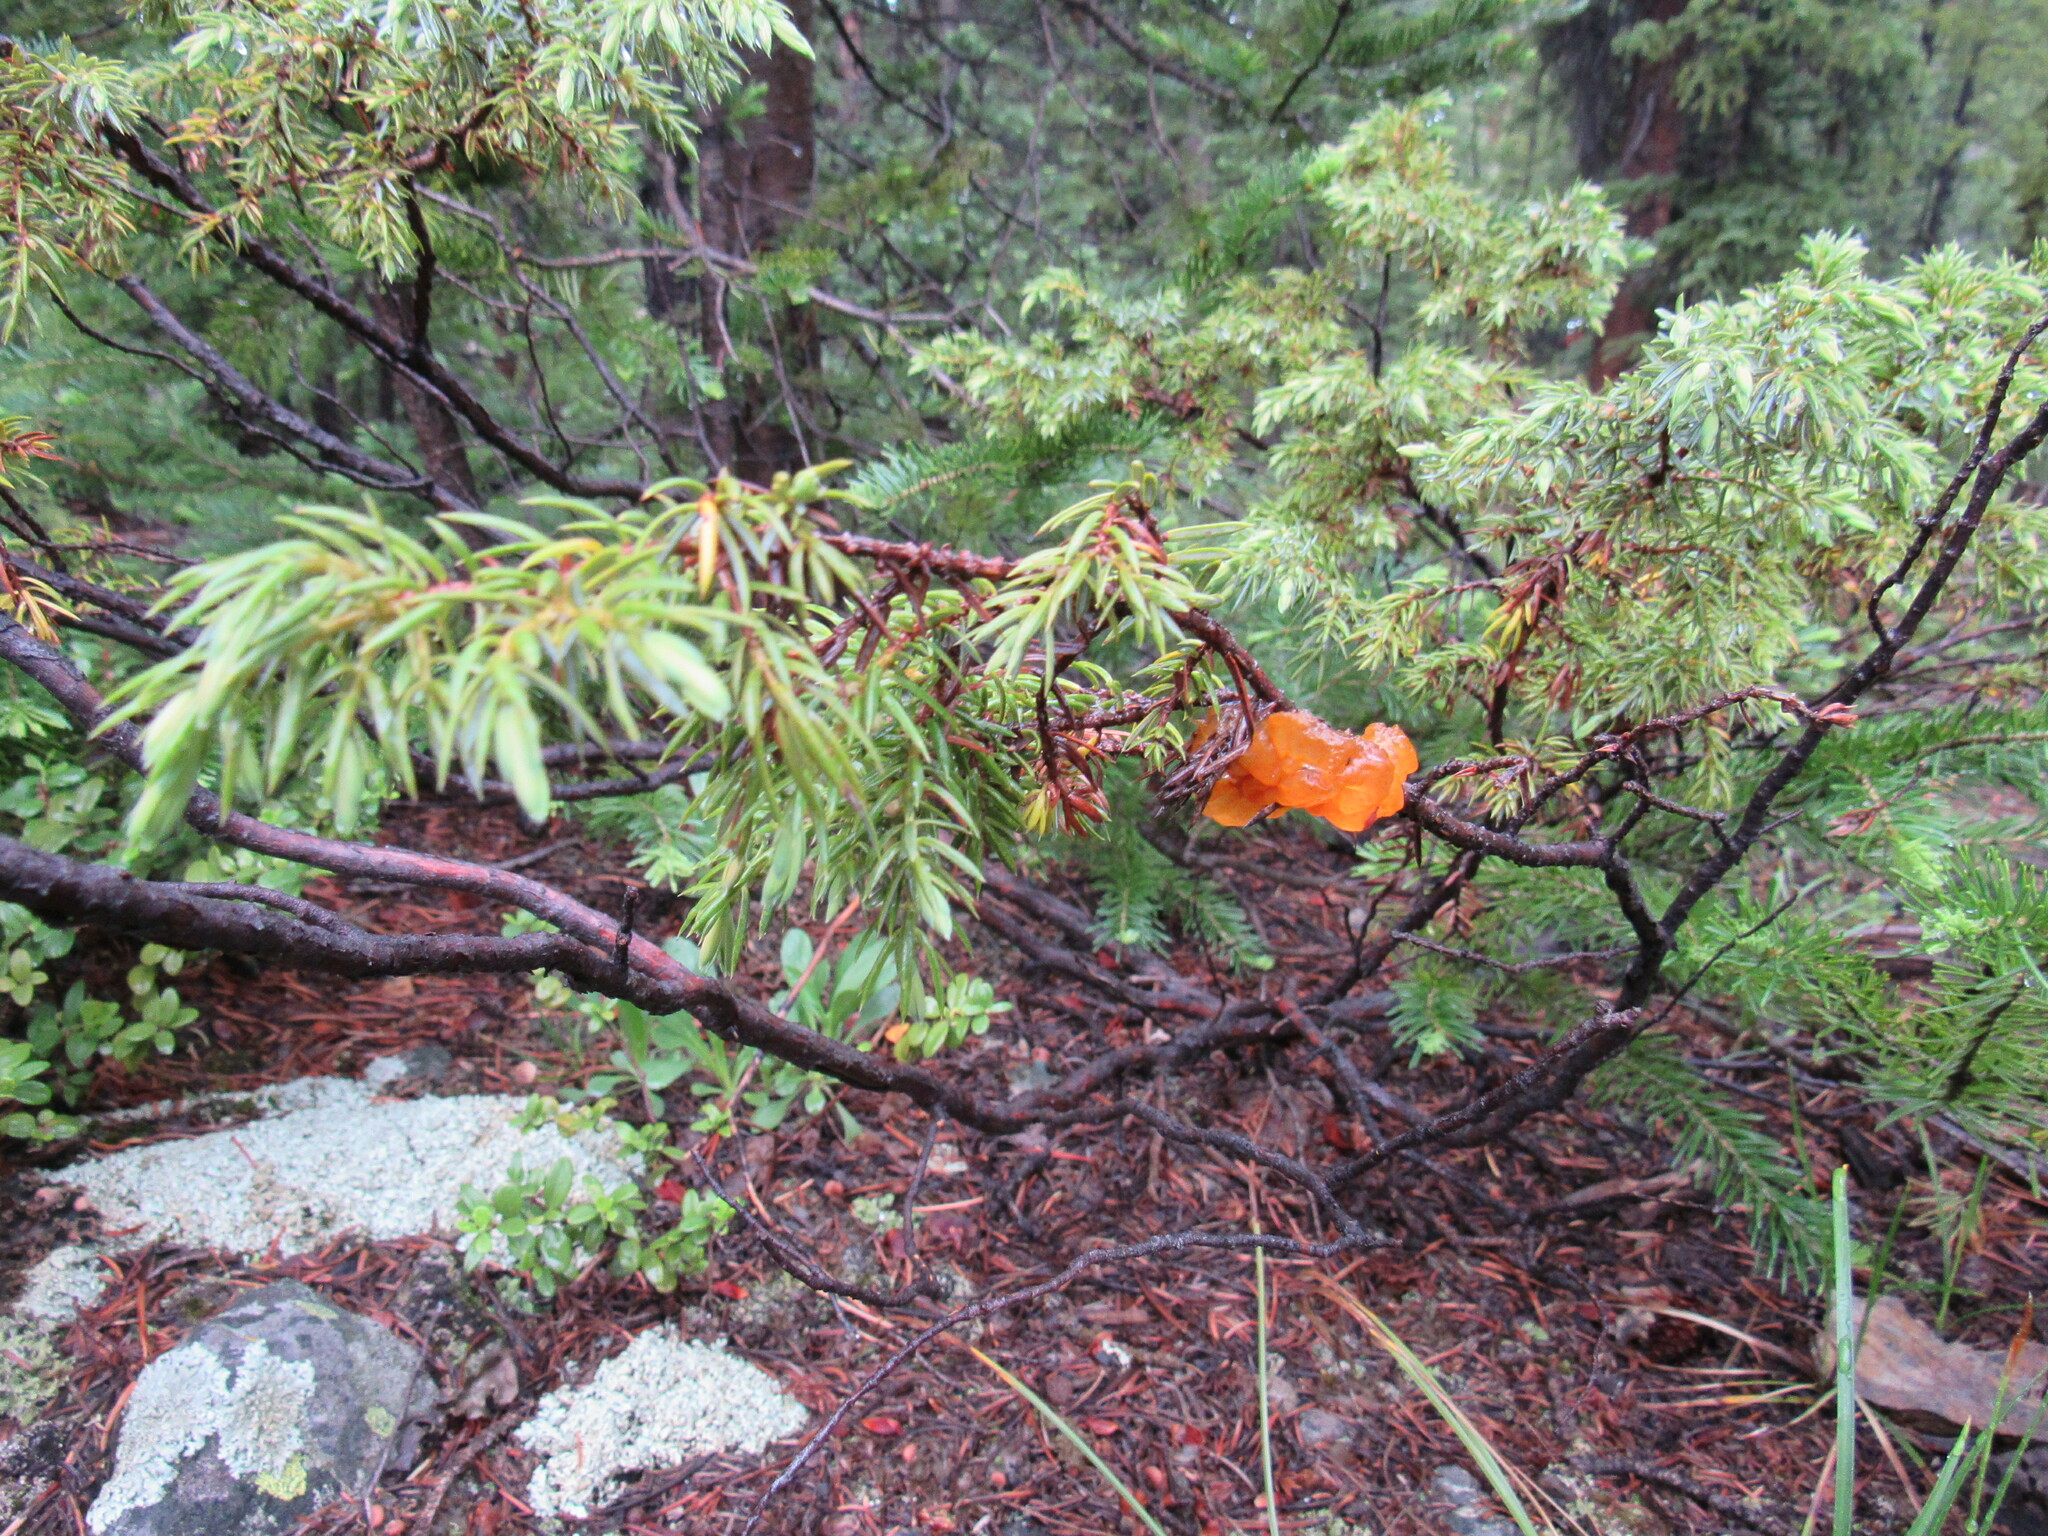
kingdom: Fungi
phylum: Basidiomycota
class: Dacrymycetes
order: Dacrymycetales
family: Dacrymycetaceae
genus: Dacrymyces
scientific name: Dacrymyces chrysospermus
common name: Orange jelly spot
